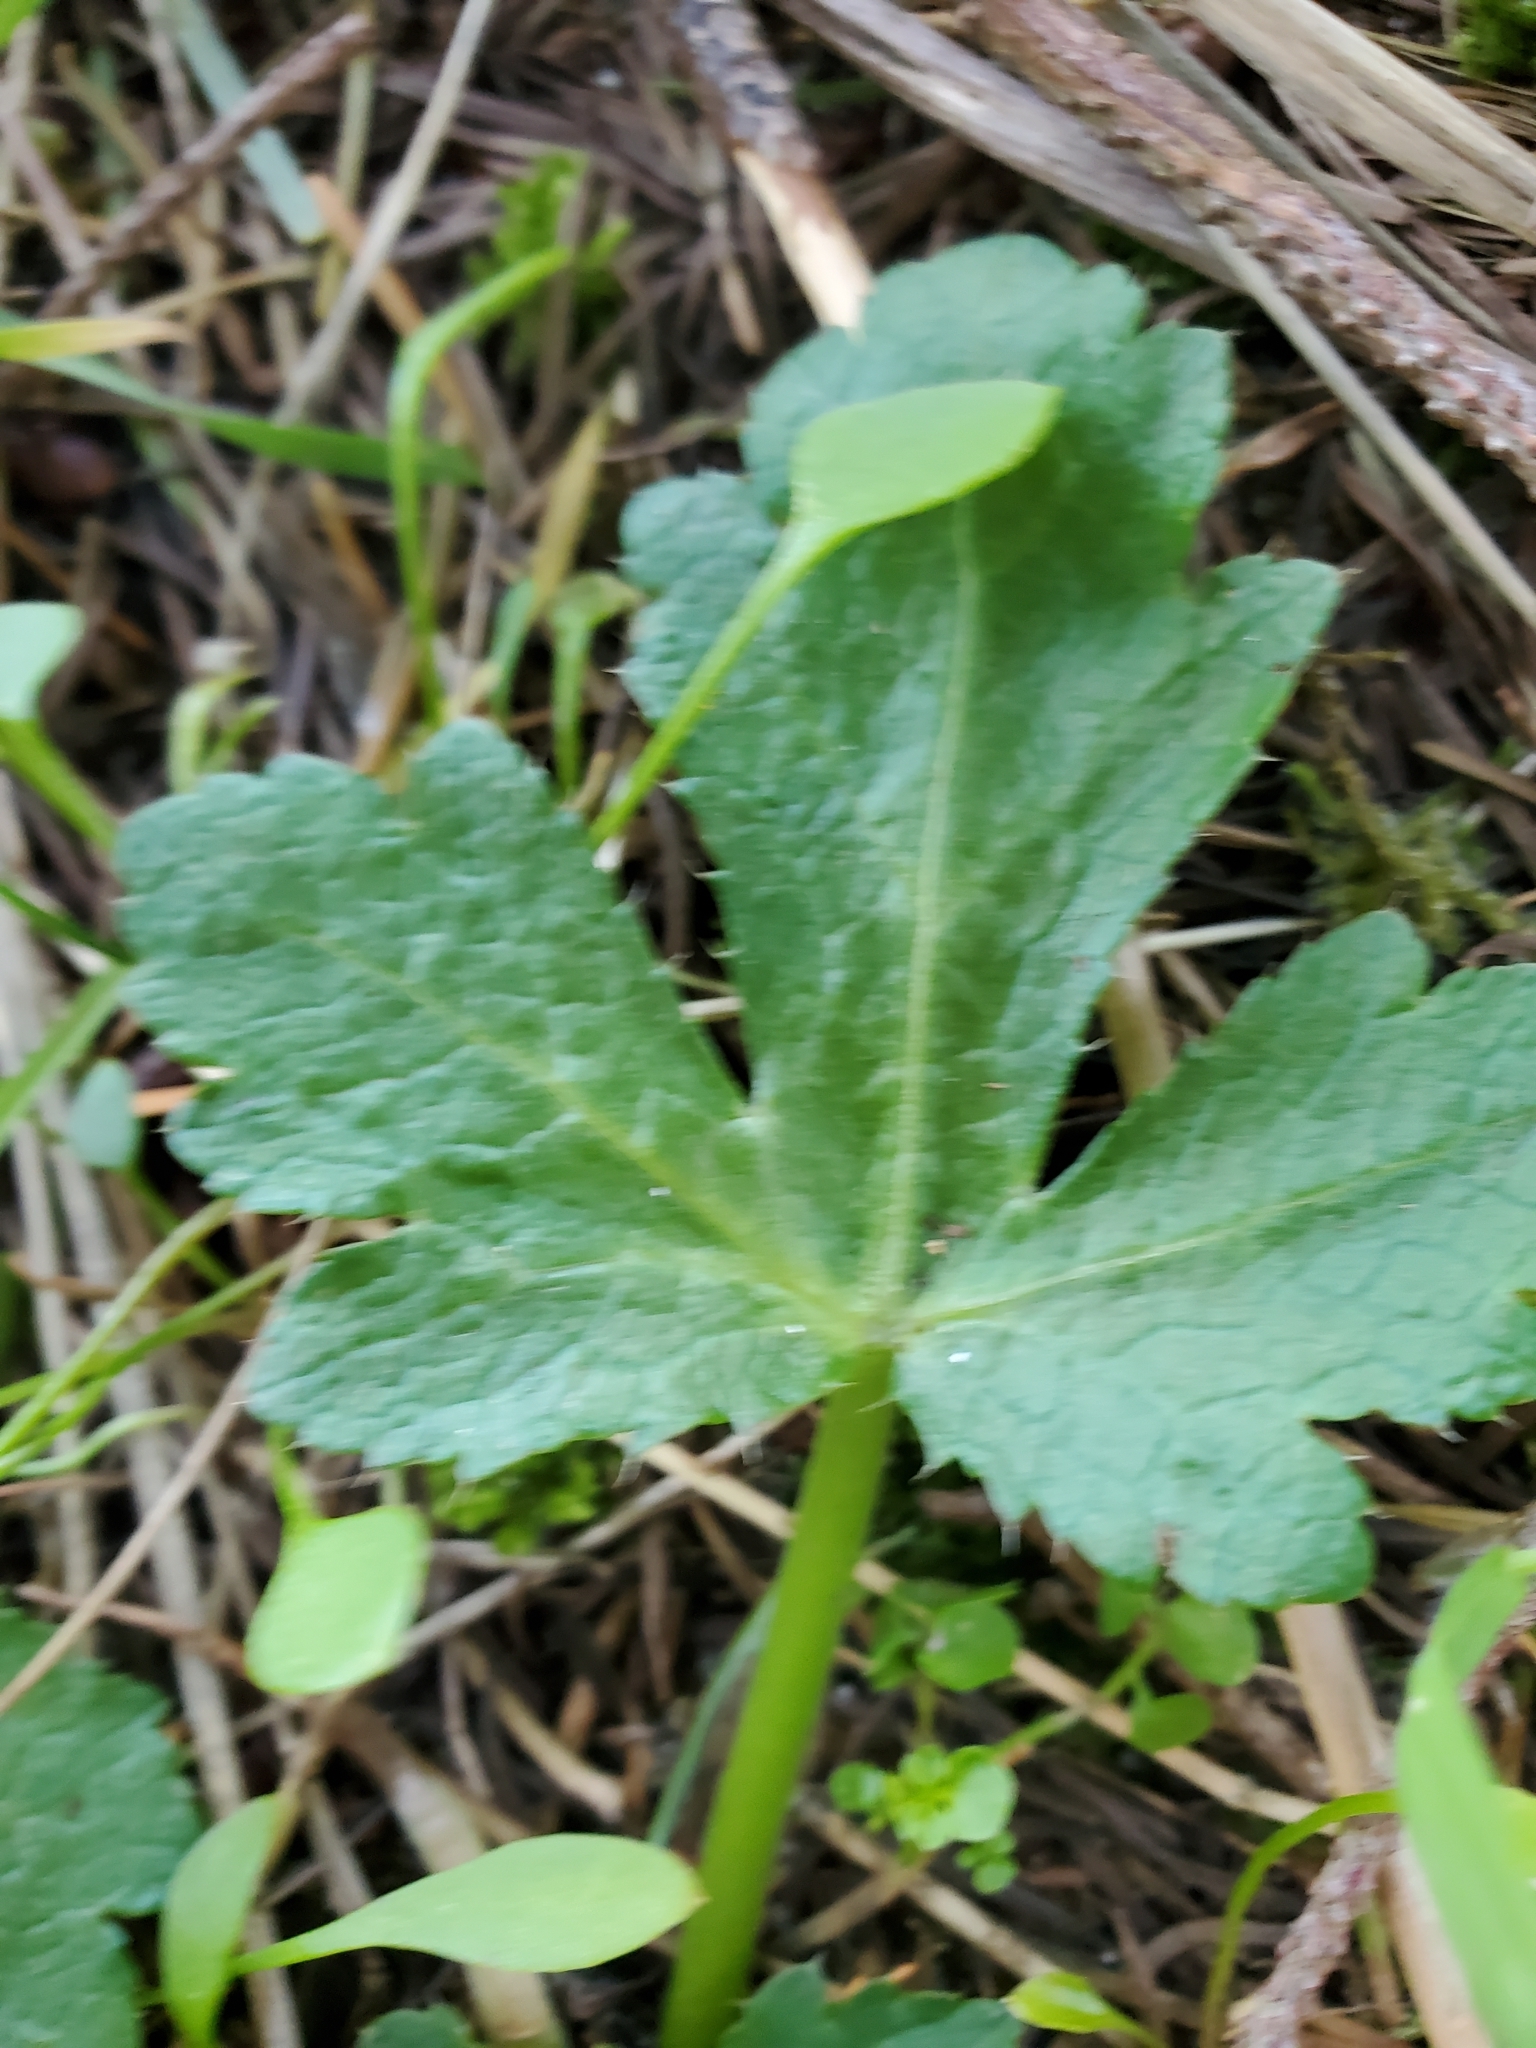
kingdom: Plantae
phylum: Tracheophyta
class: Magnoliopsida
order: Apiales
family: Apiaceae
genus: Sanicula
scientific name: Sanicula crassicaulis
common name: Western snakeroot
